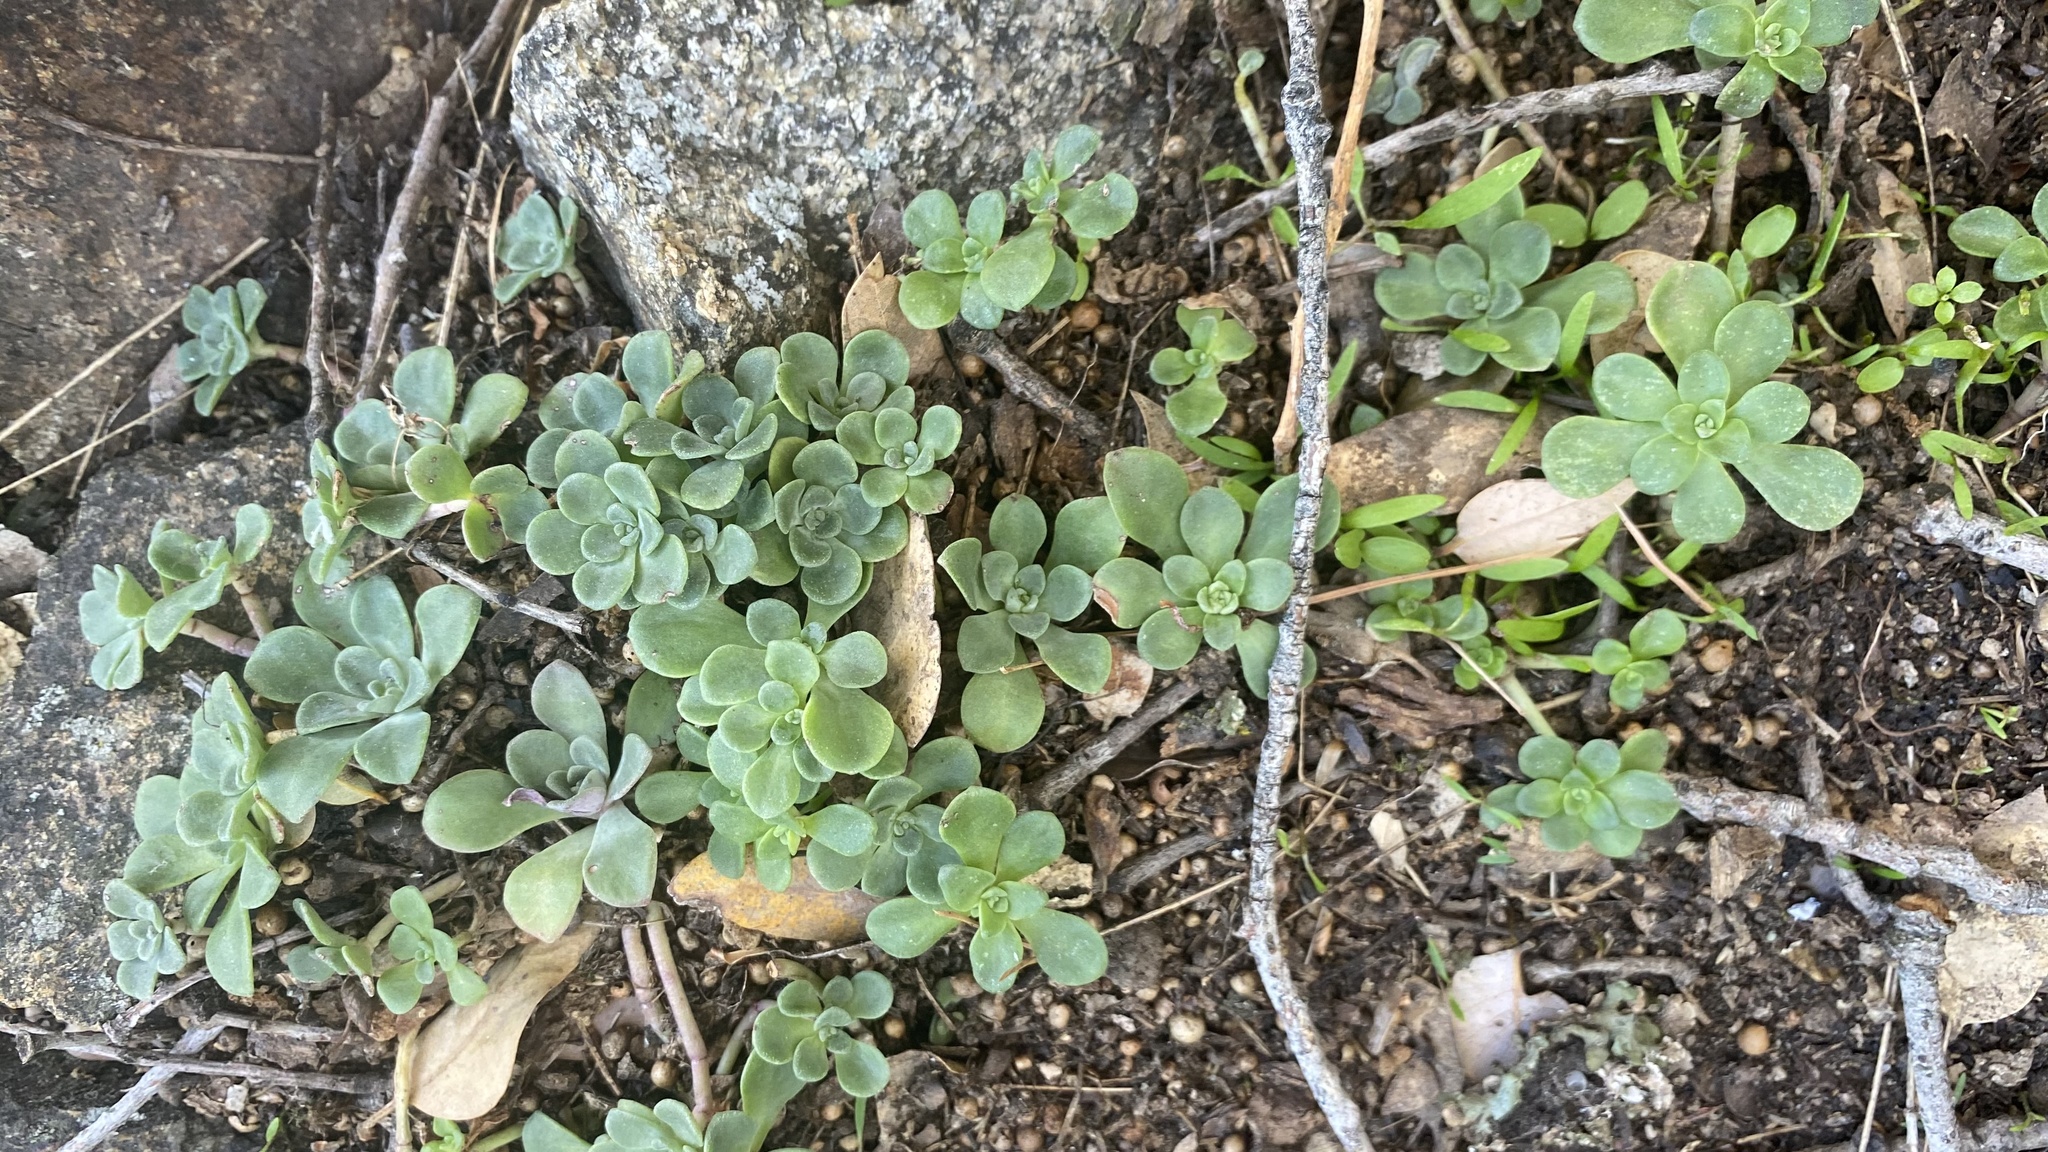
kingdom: Plantae
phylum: Tracheophyta
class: Magnoliopsida
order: Saxifragales
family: Crassulaceae
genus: Sedum
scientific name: Sedum spathulifolium
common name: Colorado stonecrop
